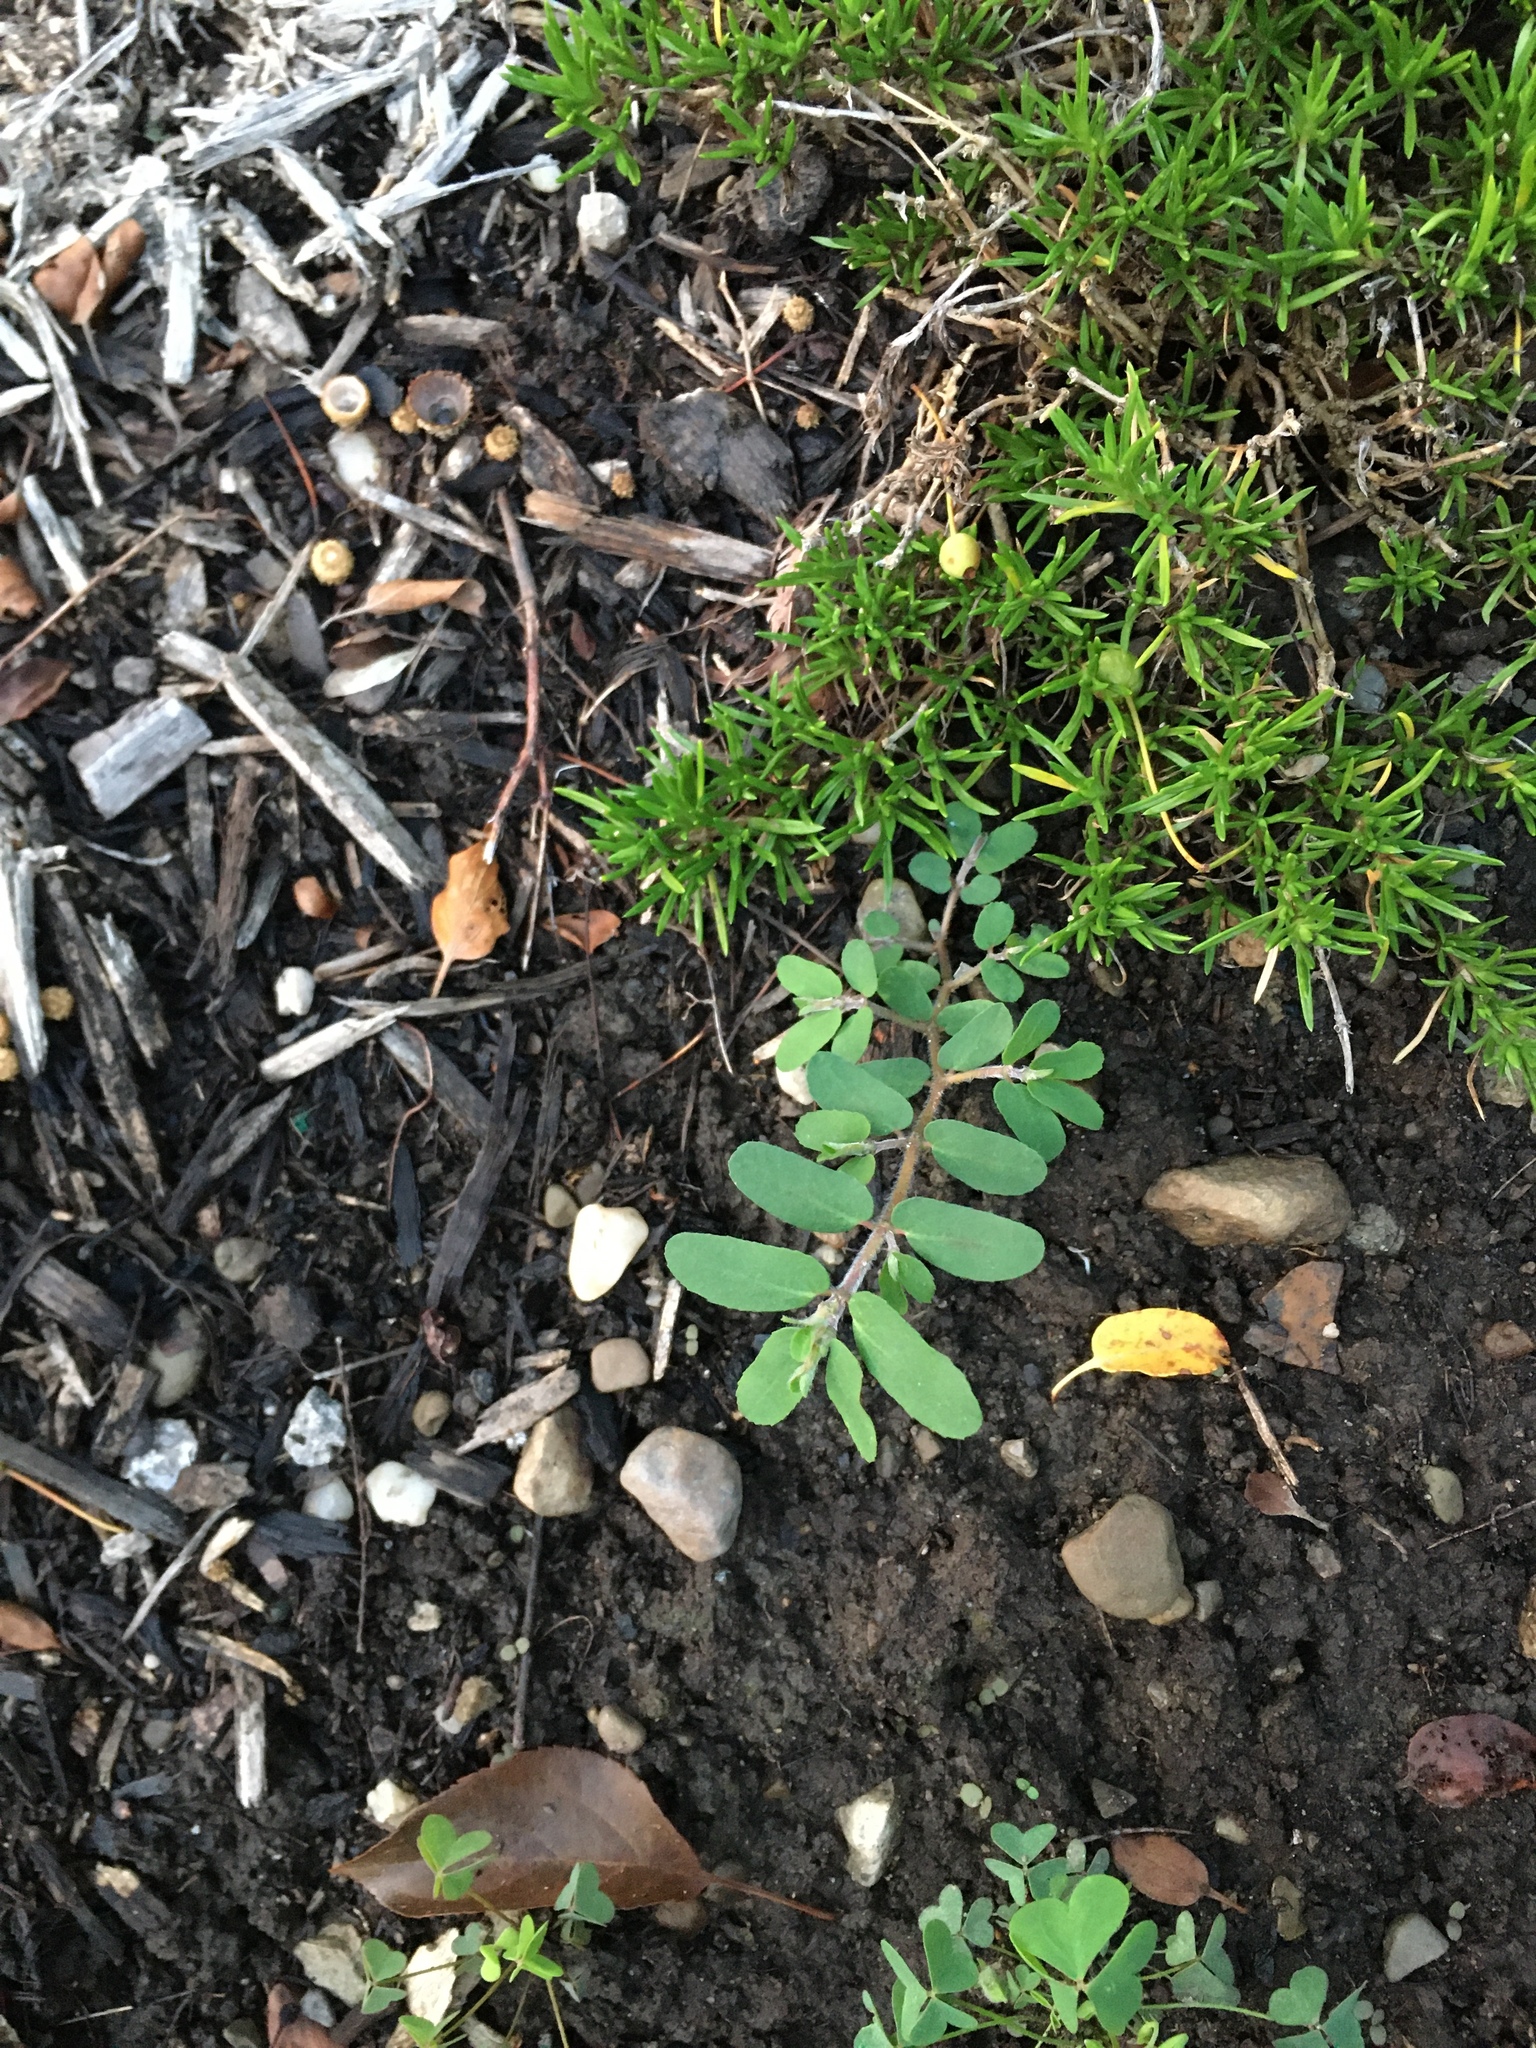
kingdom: Plantae
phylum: Tracheophyta
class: Magnoliopsida
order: Malpighiales
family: Euphorbiaceae
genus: Euphorbia
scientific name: Euphorbia maculata
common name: Spotted spurge
